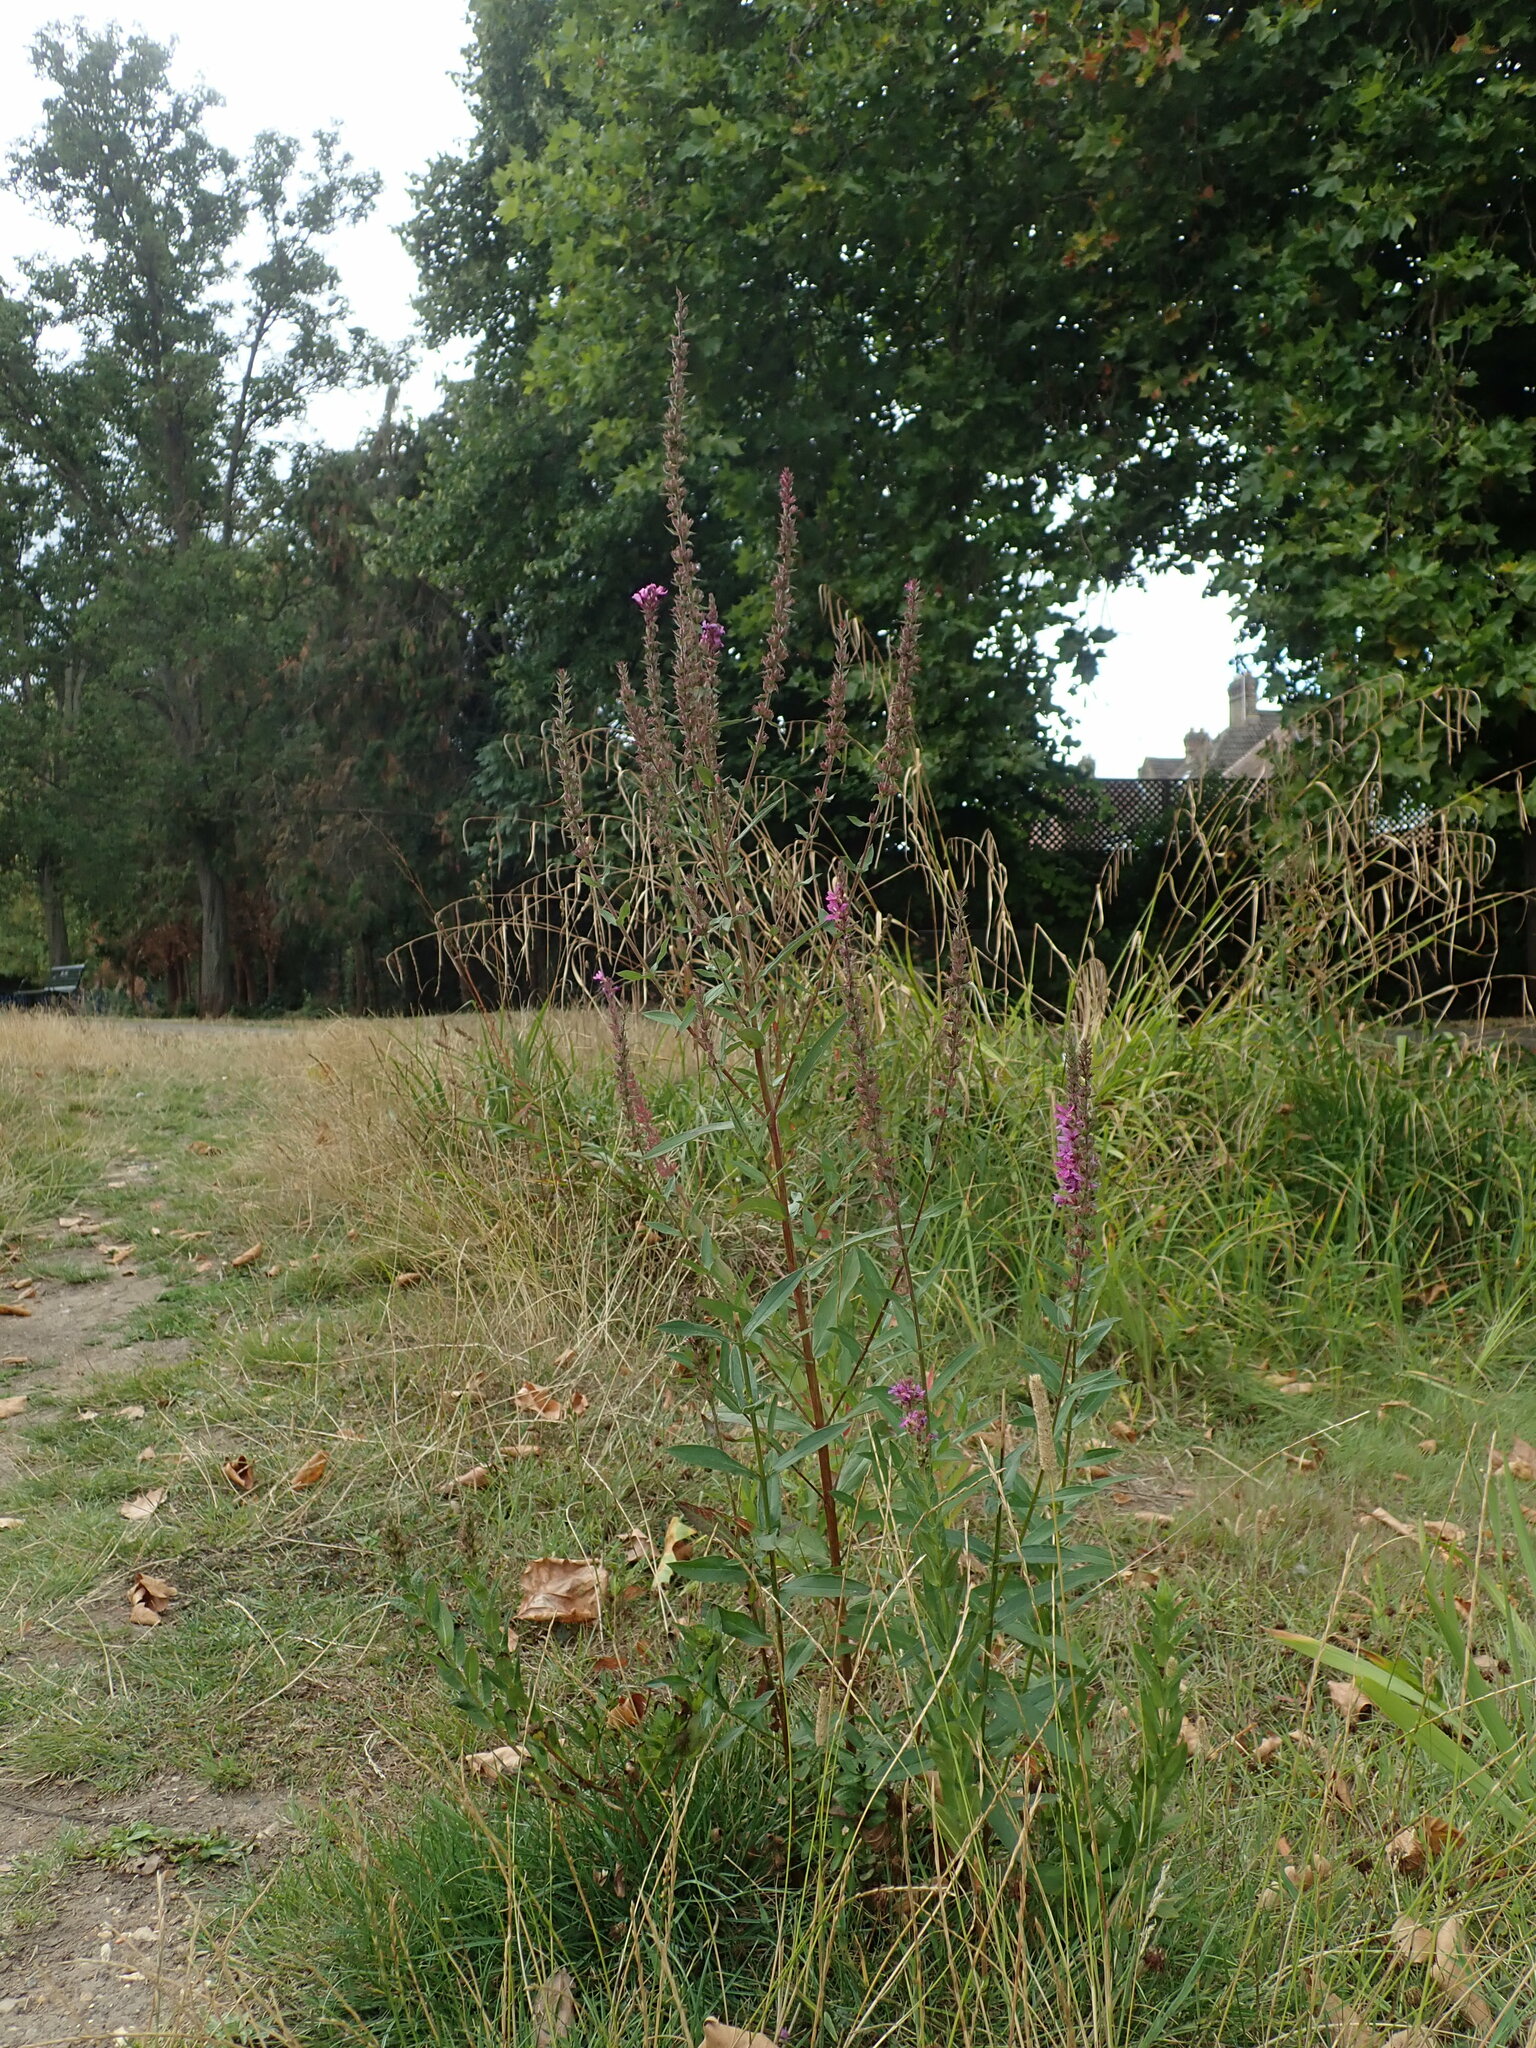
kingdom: Plantae
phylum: Tracheophyta
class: Magnoliopsida
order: Myrtales
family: Lythraceae
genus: Lythrum
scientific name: Lythrum salicaria
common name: Purple loosestrife
